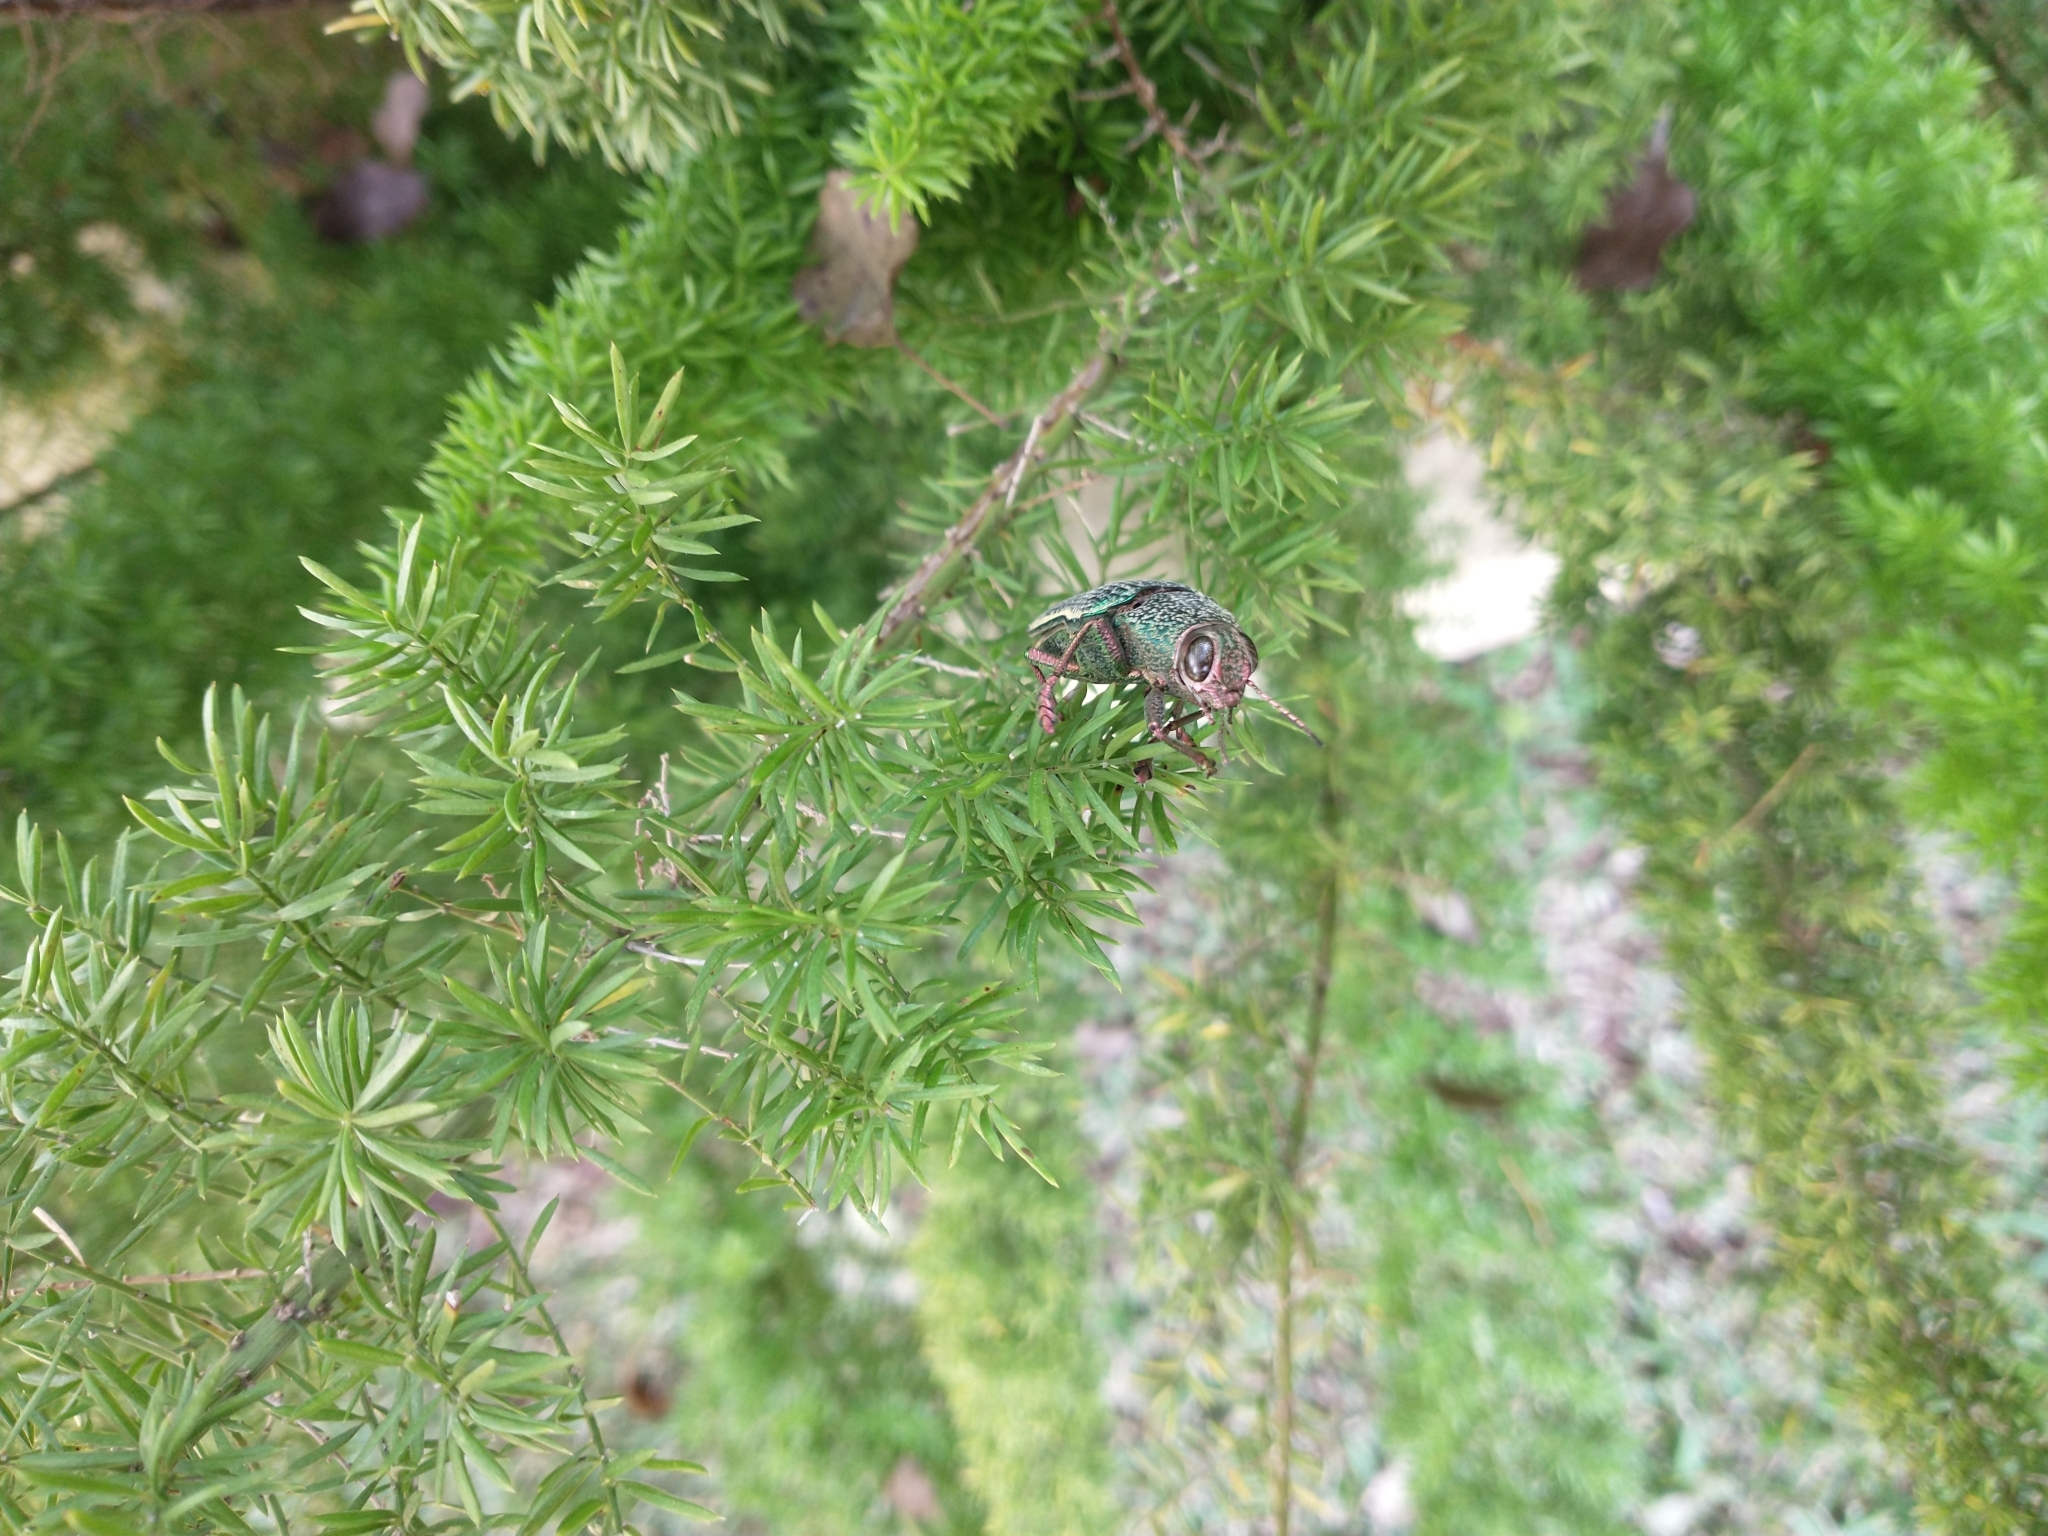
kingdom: Animalia
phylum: Arthropoda
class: Insecta
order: Coleoptera
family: Buprestidae
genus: Psiloptera
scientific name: Psiloptera attenuata
